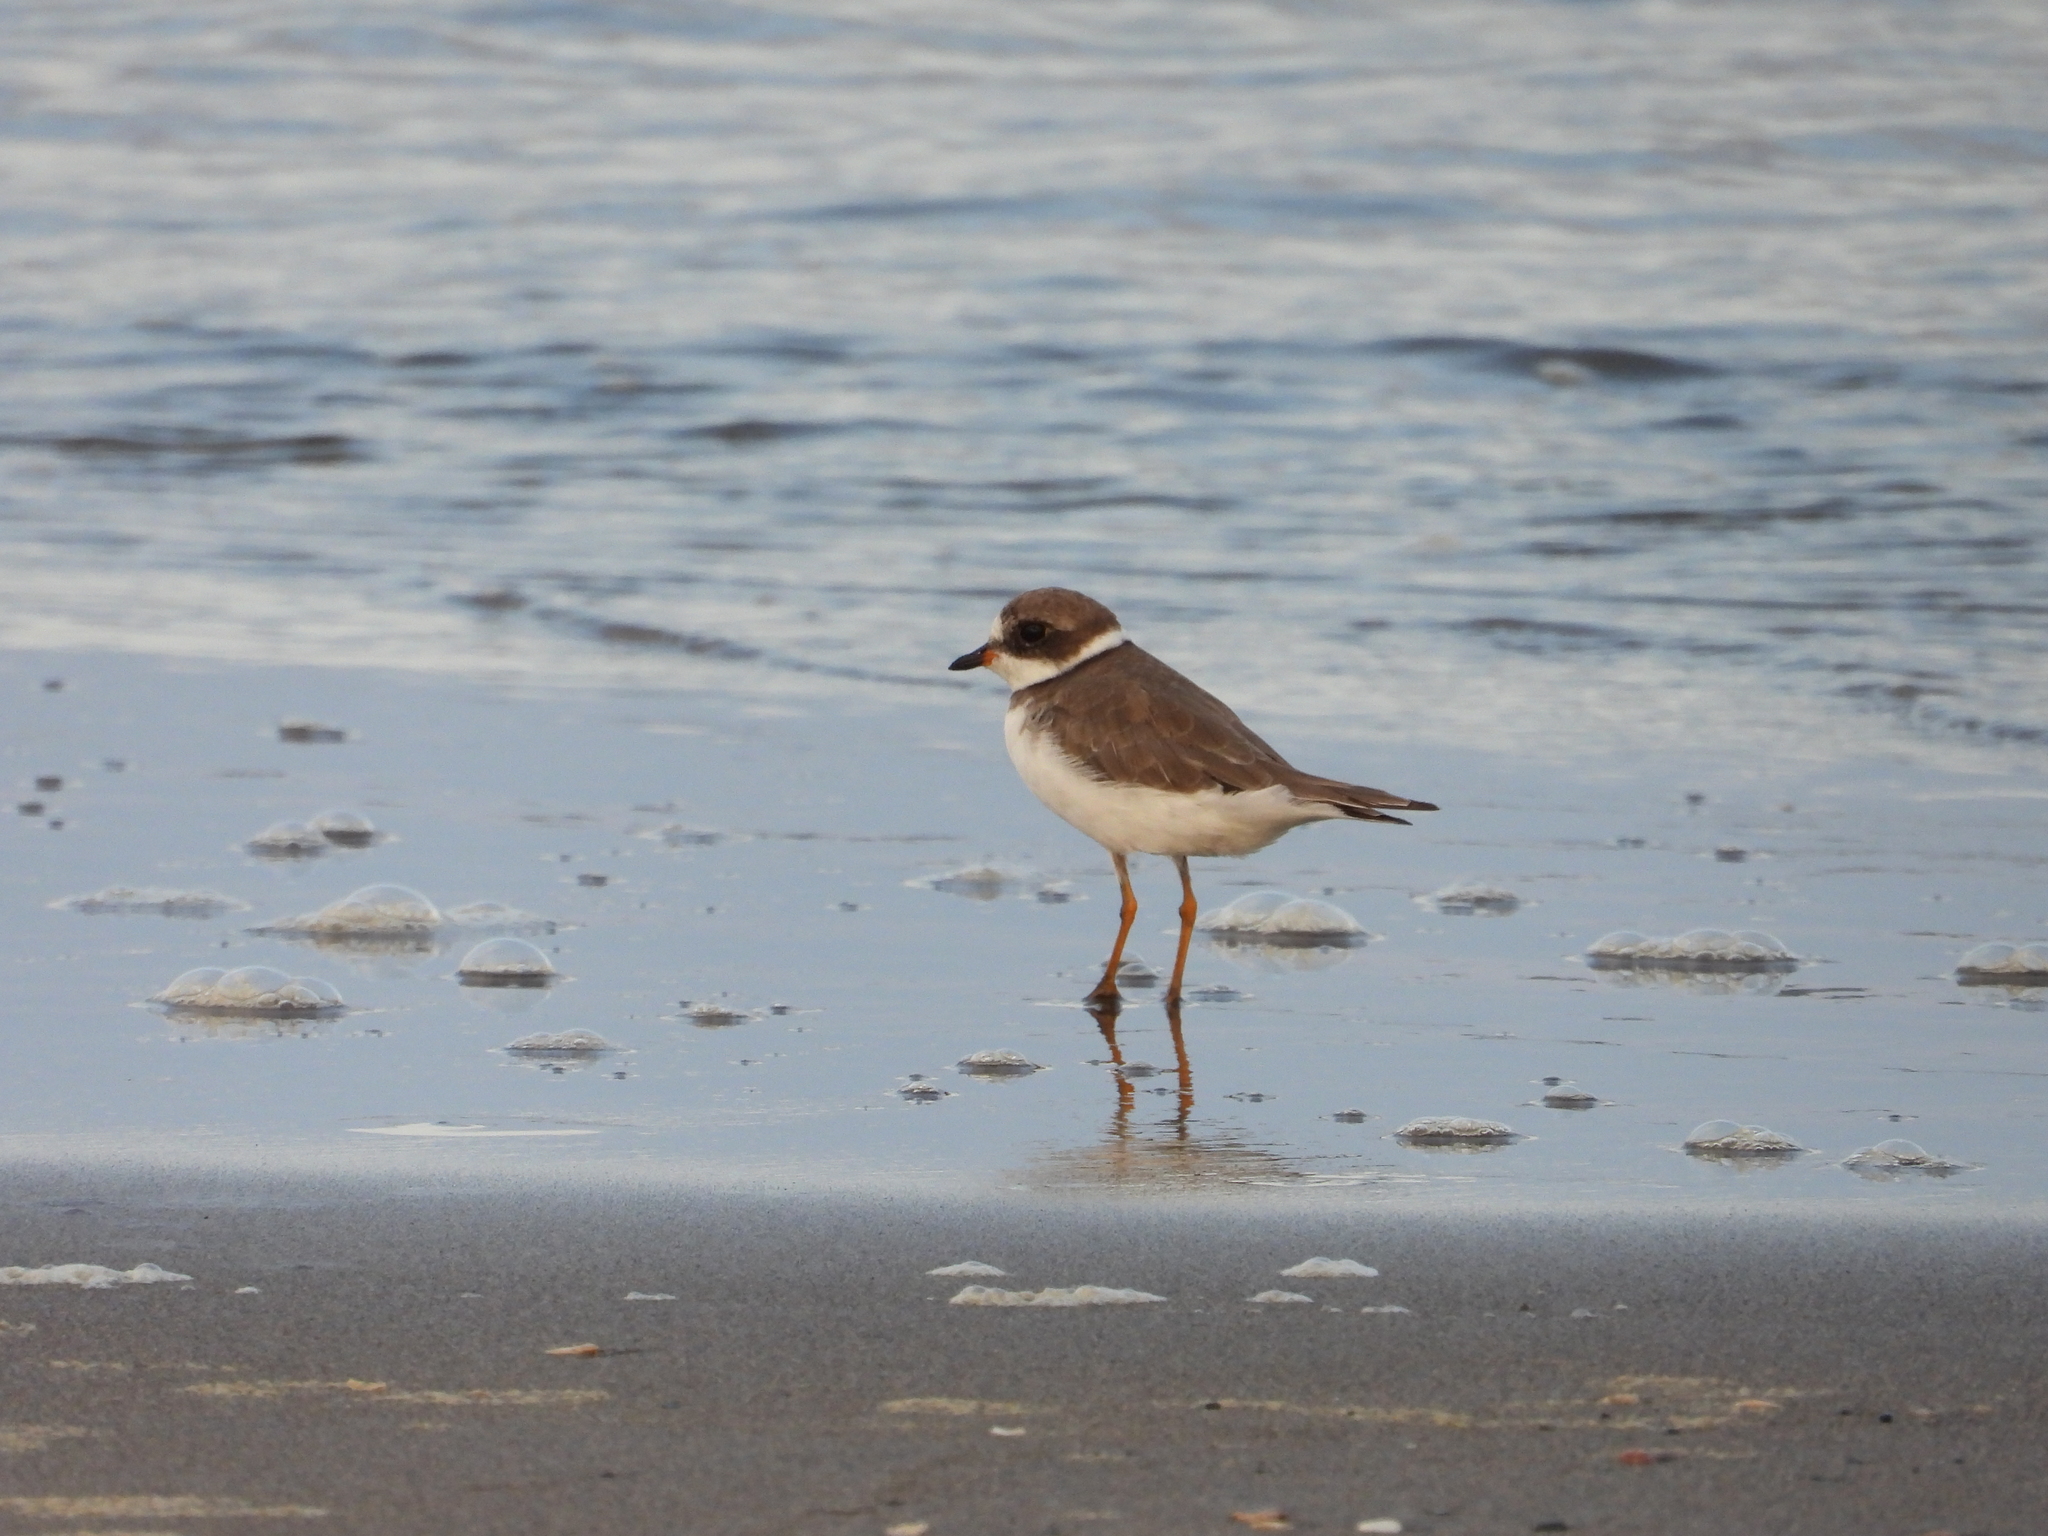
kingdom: Animalia
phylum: Chordata
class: Aves
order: Charadriiformes
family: Charadriidae
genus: Charadrius
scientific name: Charadrius semipalmatus
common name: Semipalmated plover
